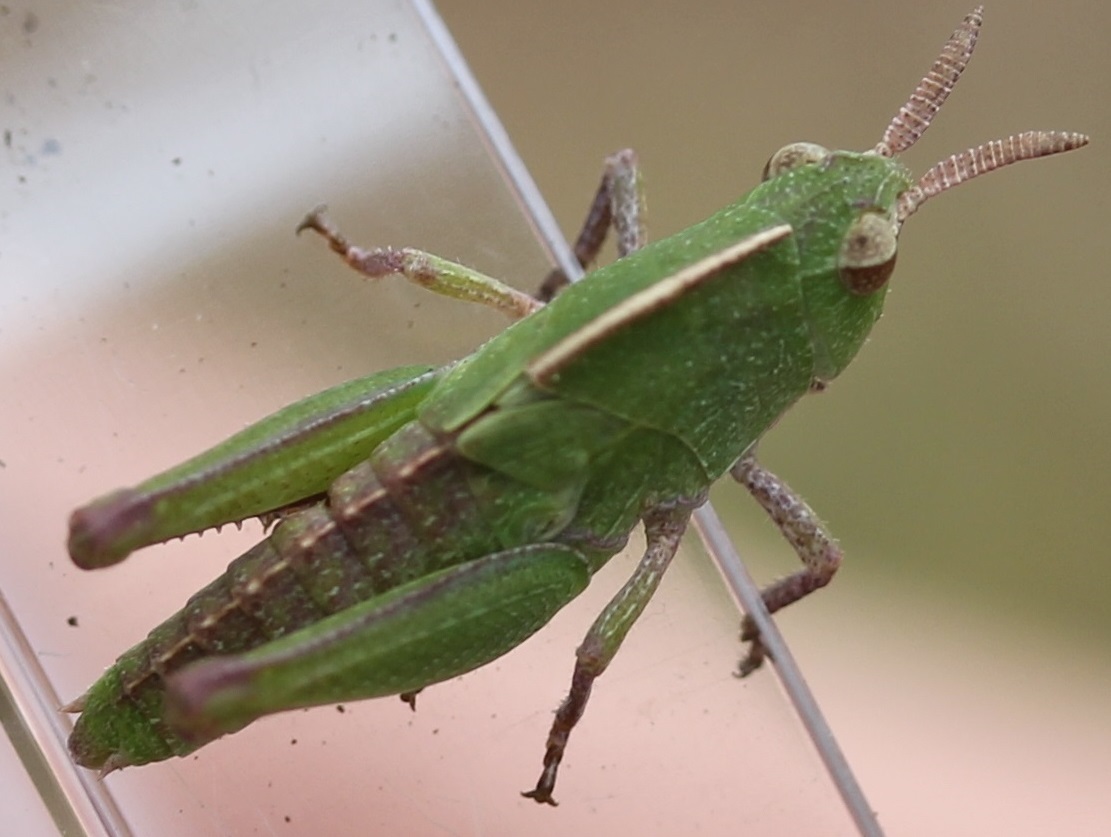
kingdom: Animalia
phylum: Arthropoda
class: Insecta
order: Orthoptera
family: Acrididae
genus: Chortophaga
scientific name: Chortophaga viridifasciata
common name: Green-striped grasshopper
